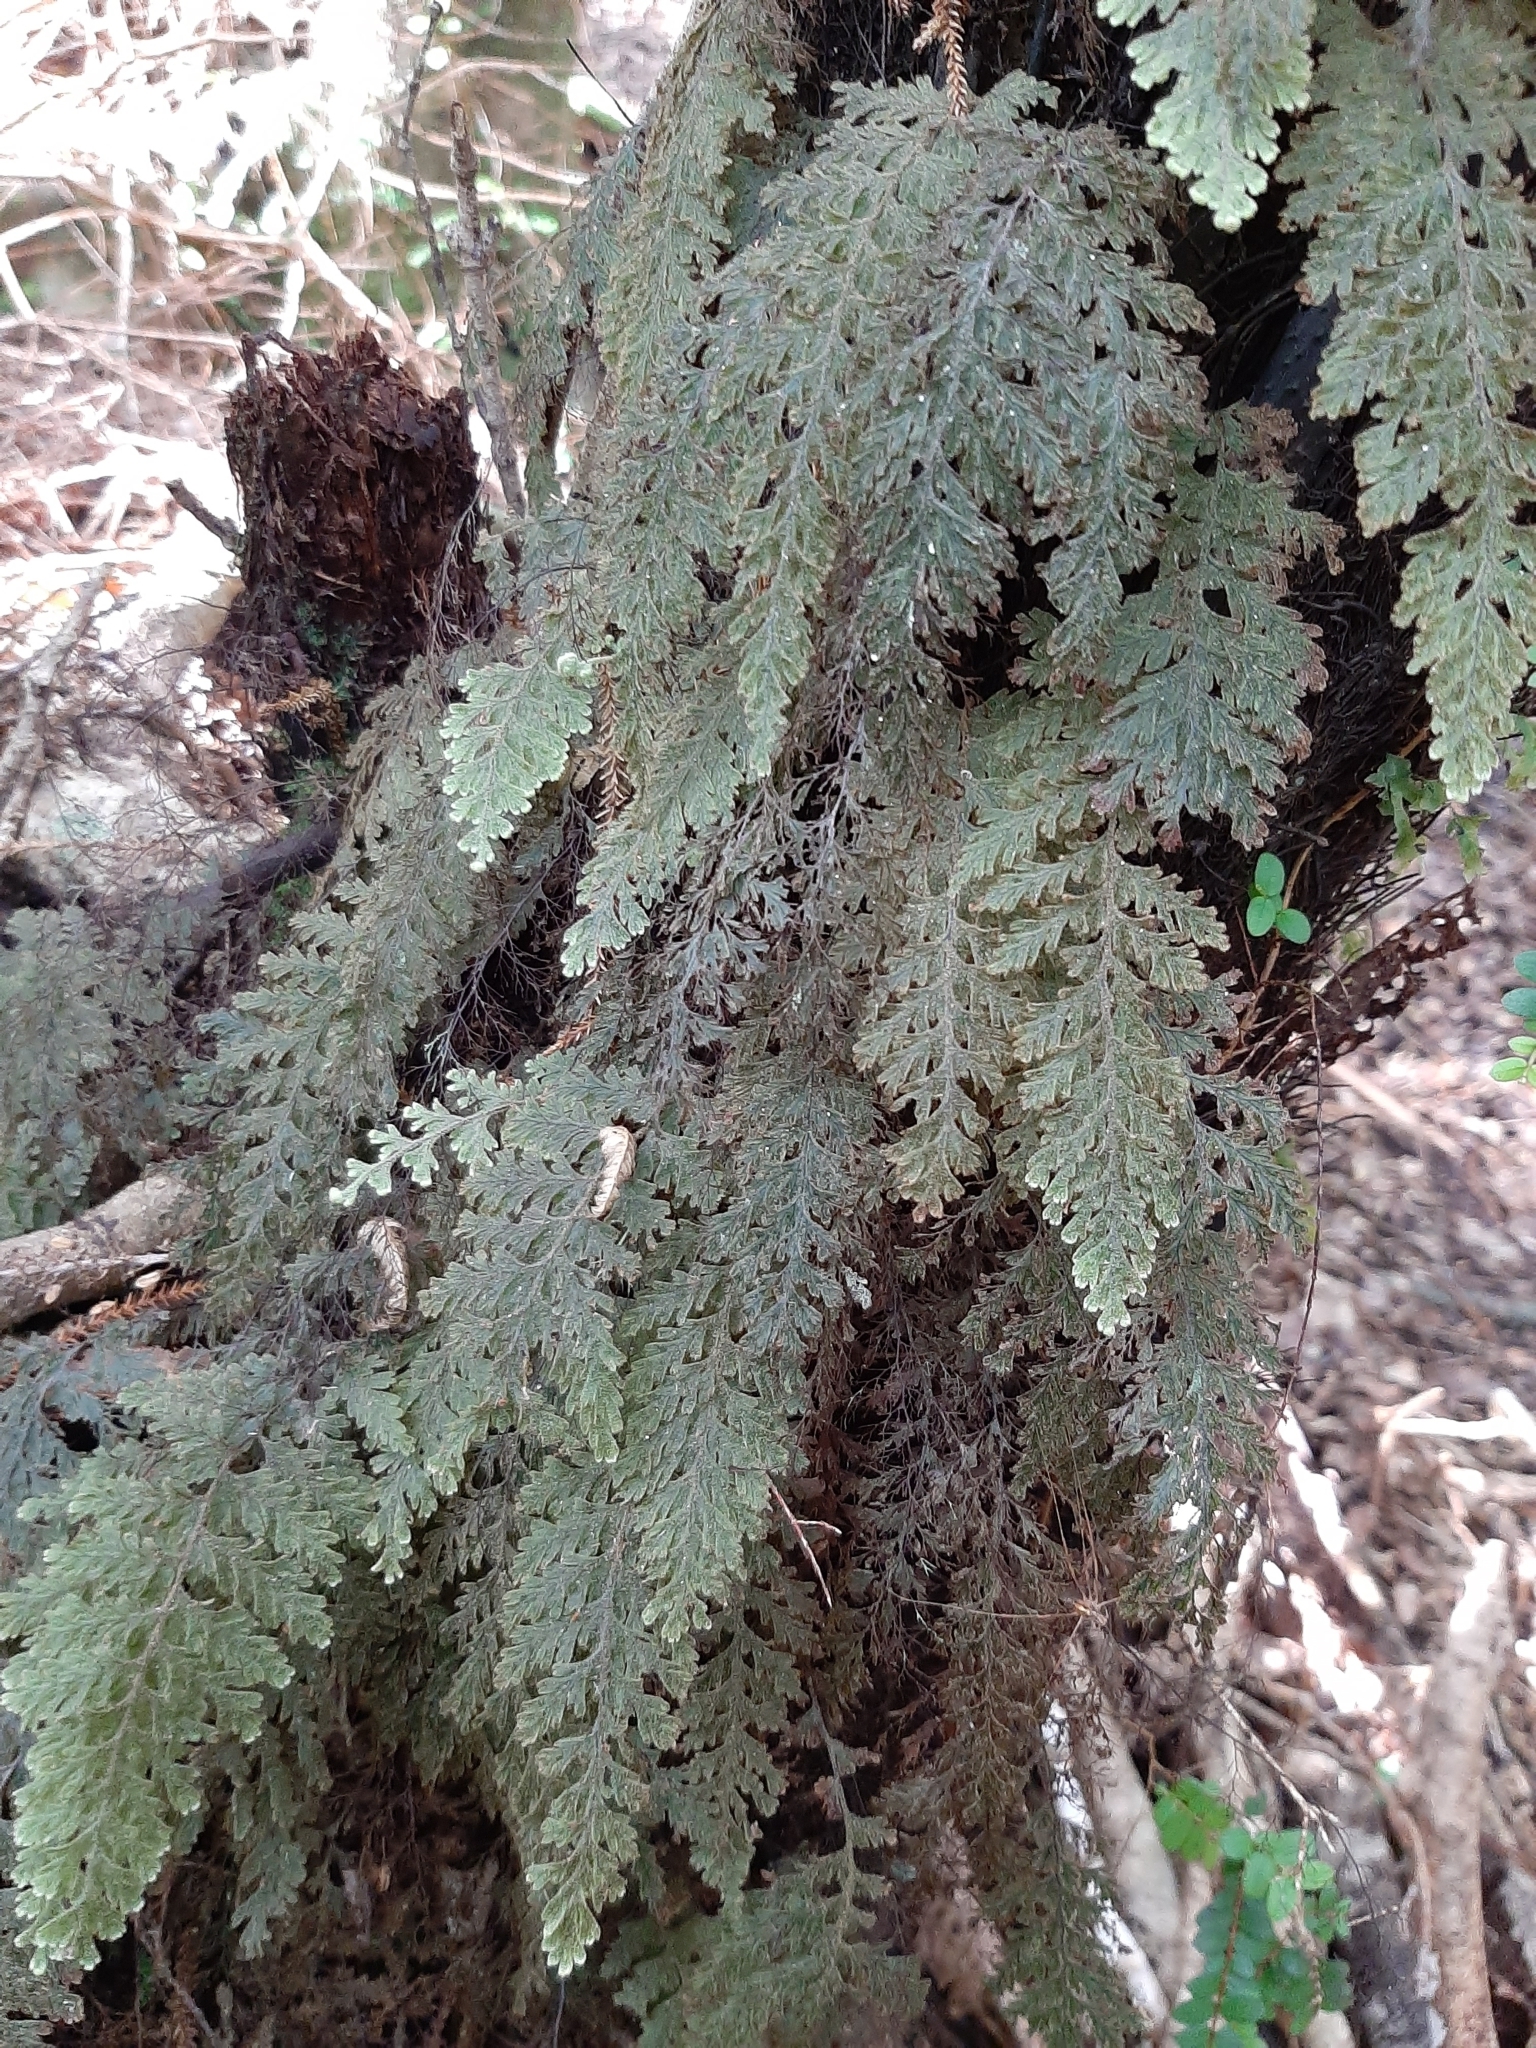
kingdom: Plantae
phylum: Tracheophyta
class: Polypodiopsida
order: Hymenophyllales
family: Hymenophyllaceae
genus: Hymenophyllum
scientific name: Hymenophyllum frankliniae
